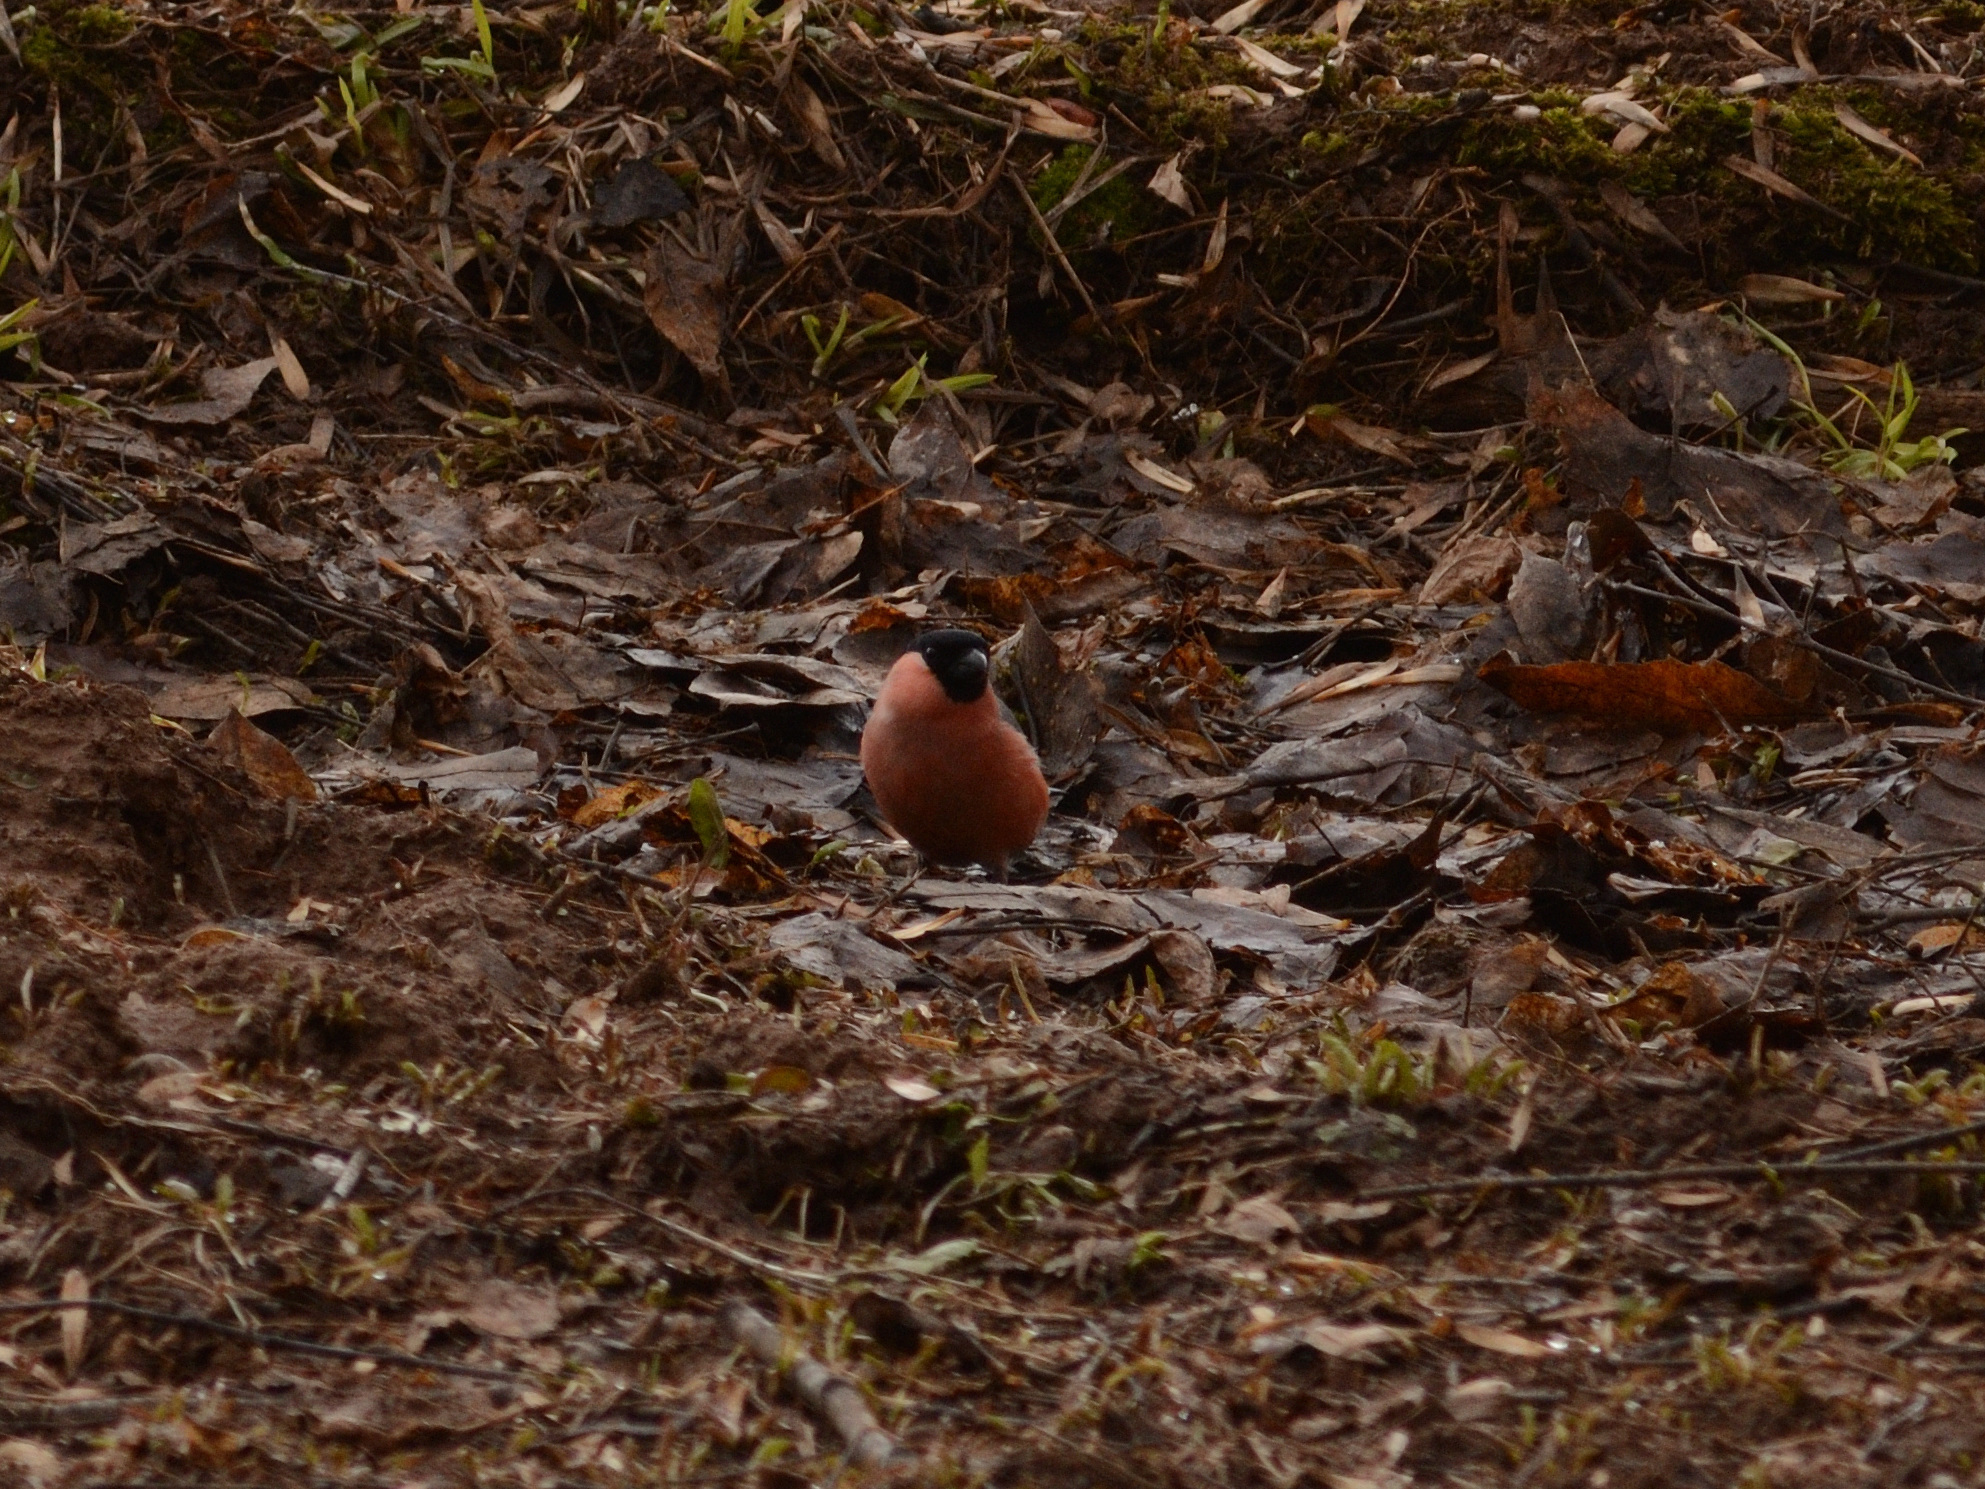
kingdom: Animalia
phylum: Chordata
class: Aves
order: Passeriformes
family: Fringillidae
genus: Pyrrhula
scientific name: Pyrrhula pyrrhula
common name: Eurasian bullfinch
